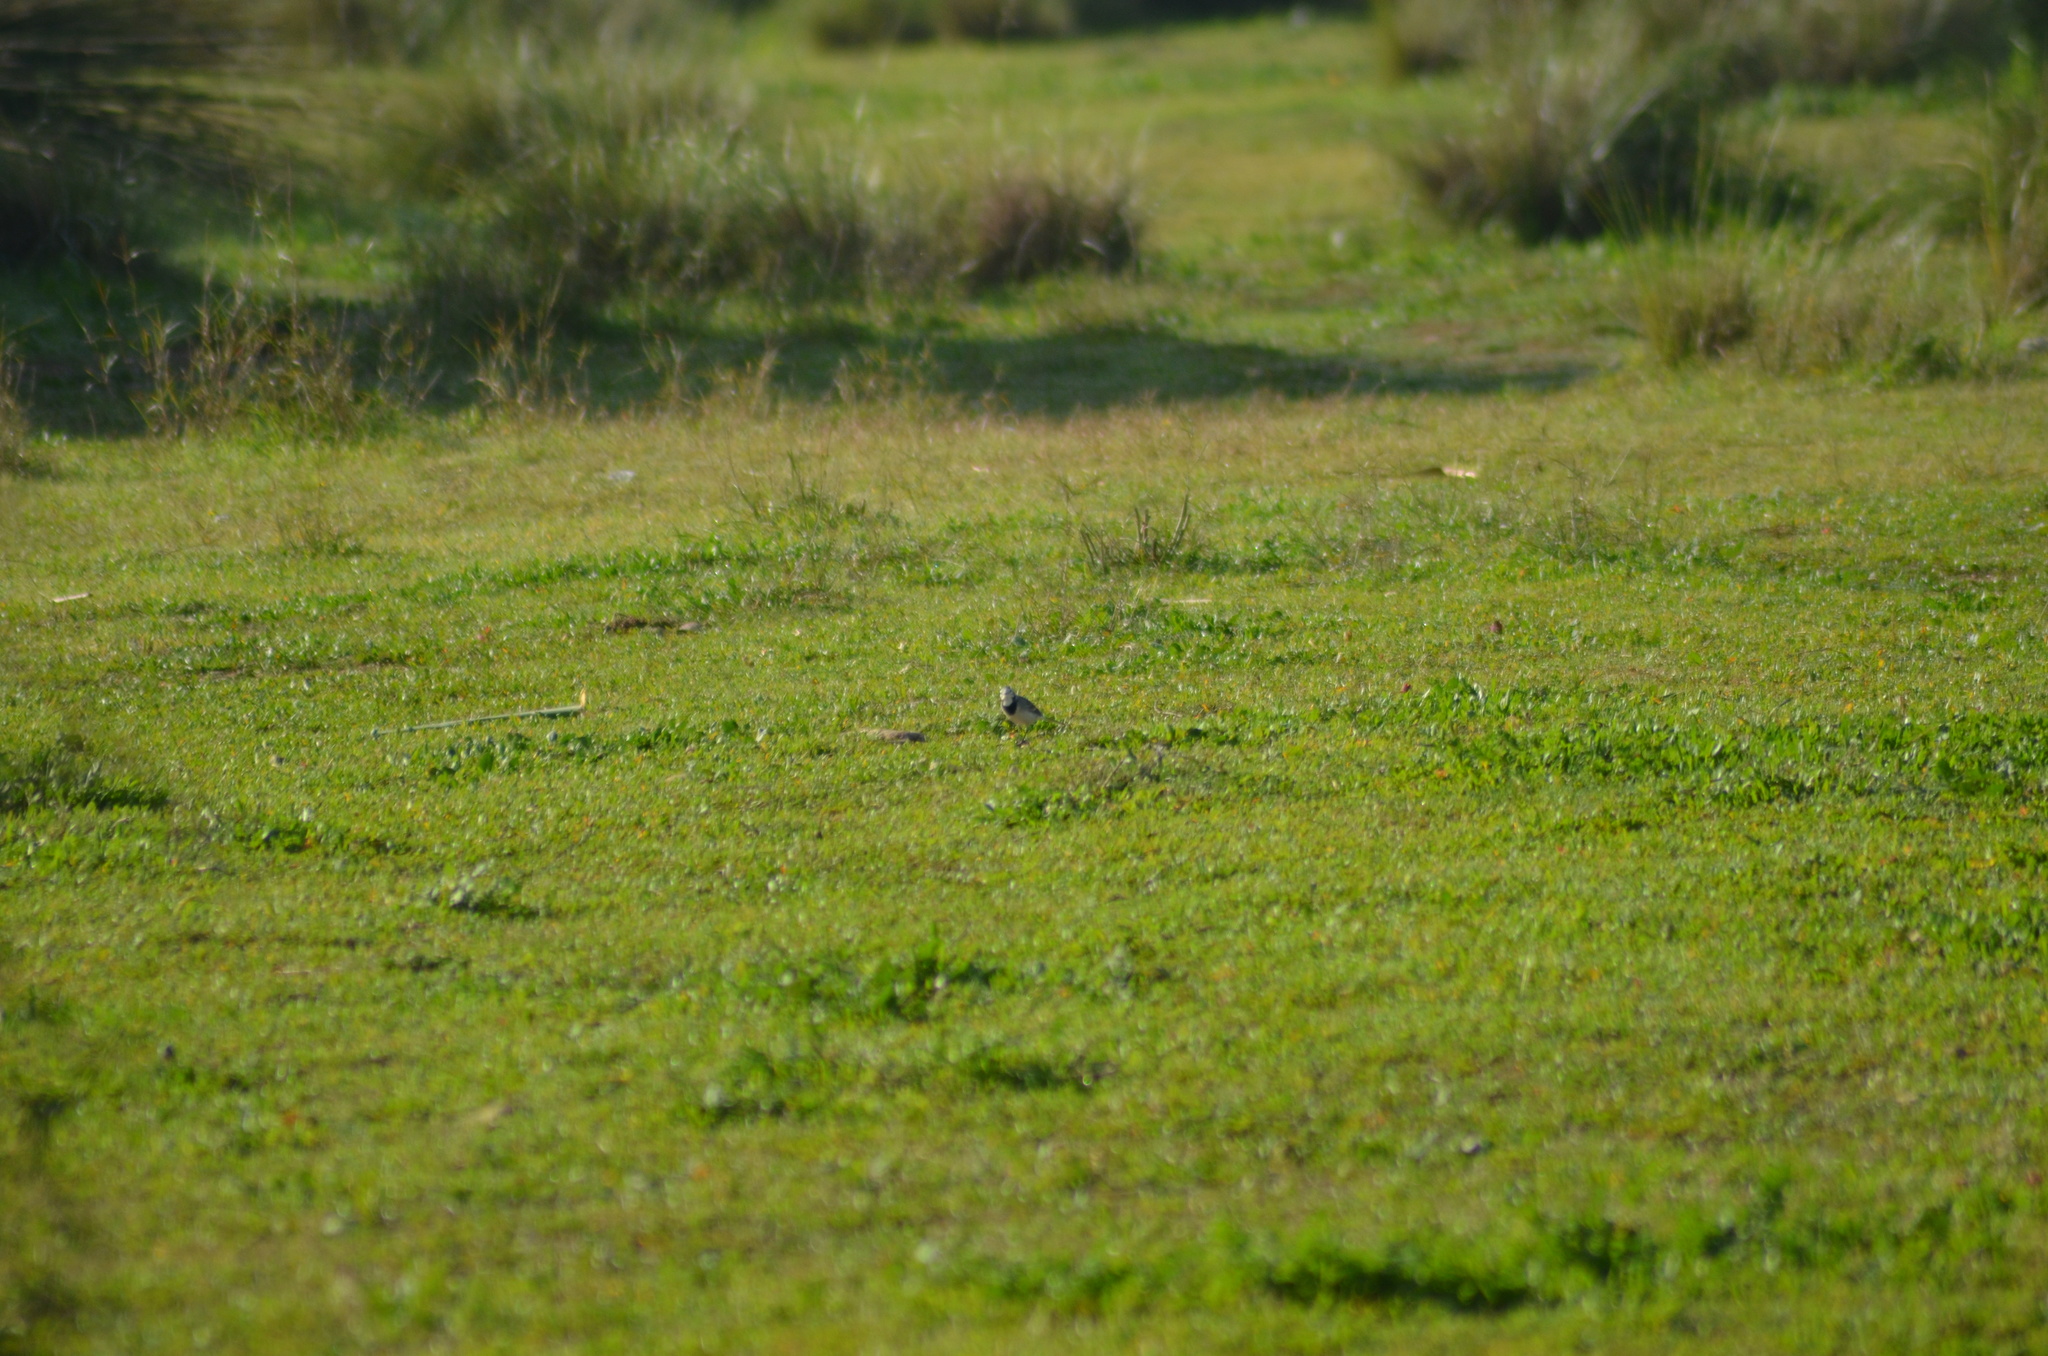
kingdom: Animalia
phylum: Chordata
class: Aves
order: Passeriformes
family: Motacillidae
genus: Motacilla
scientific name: Motacilla alba
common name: White wagtail
